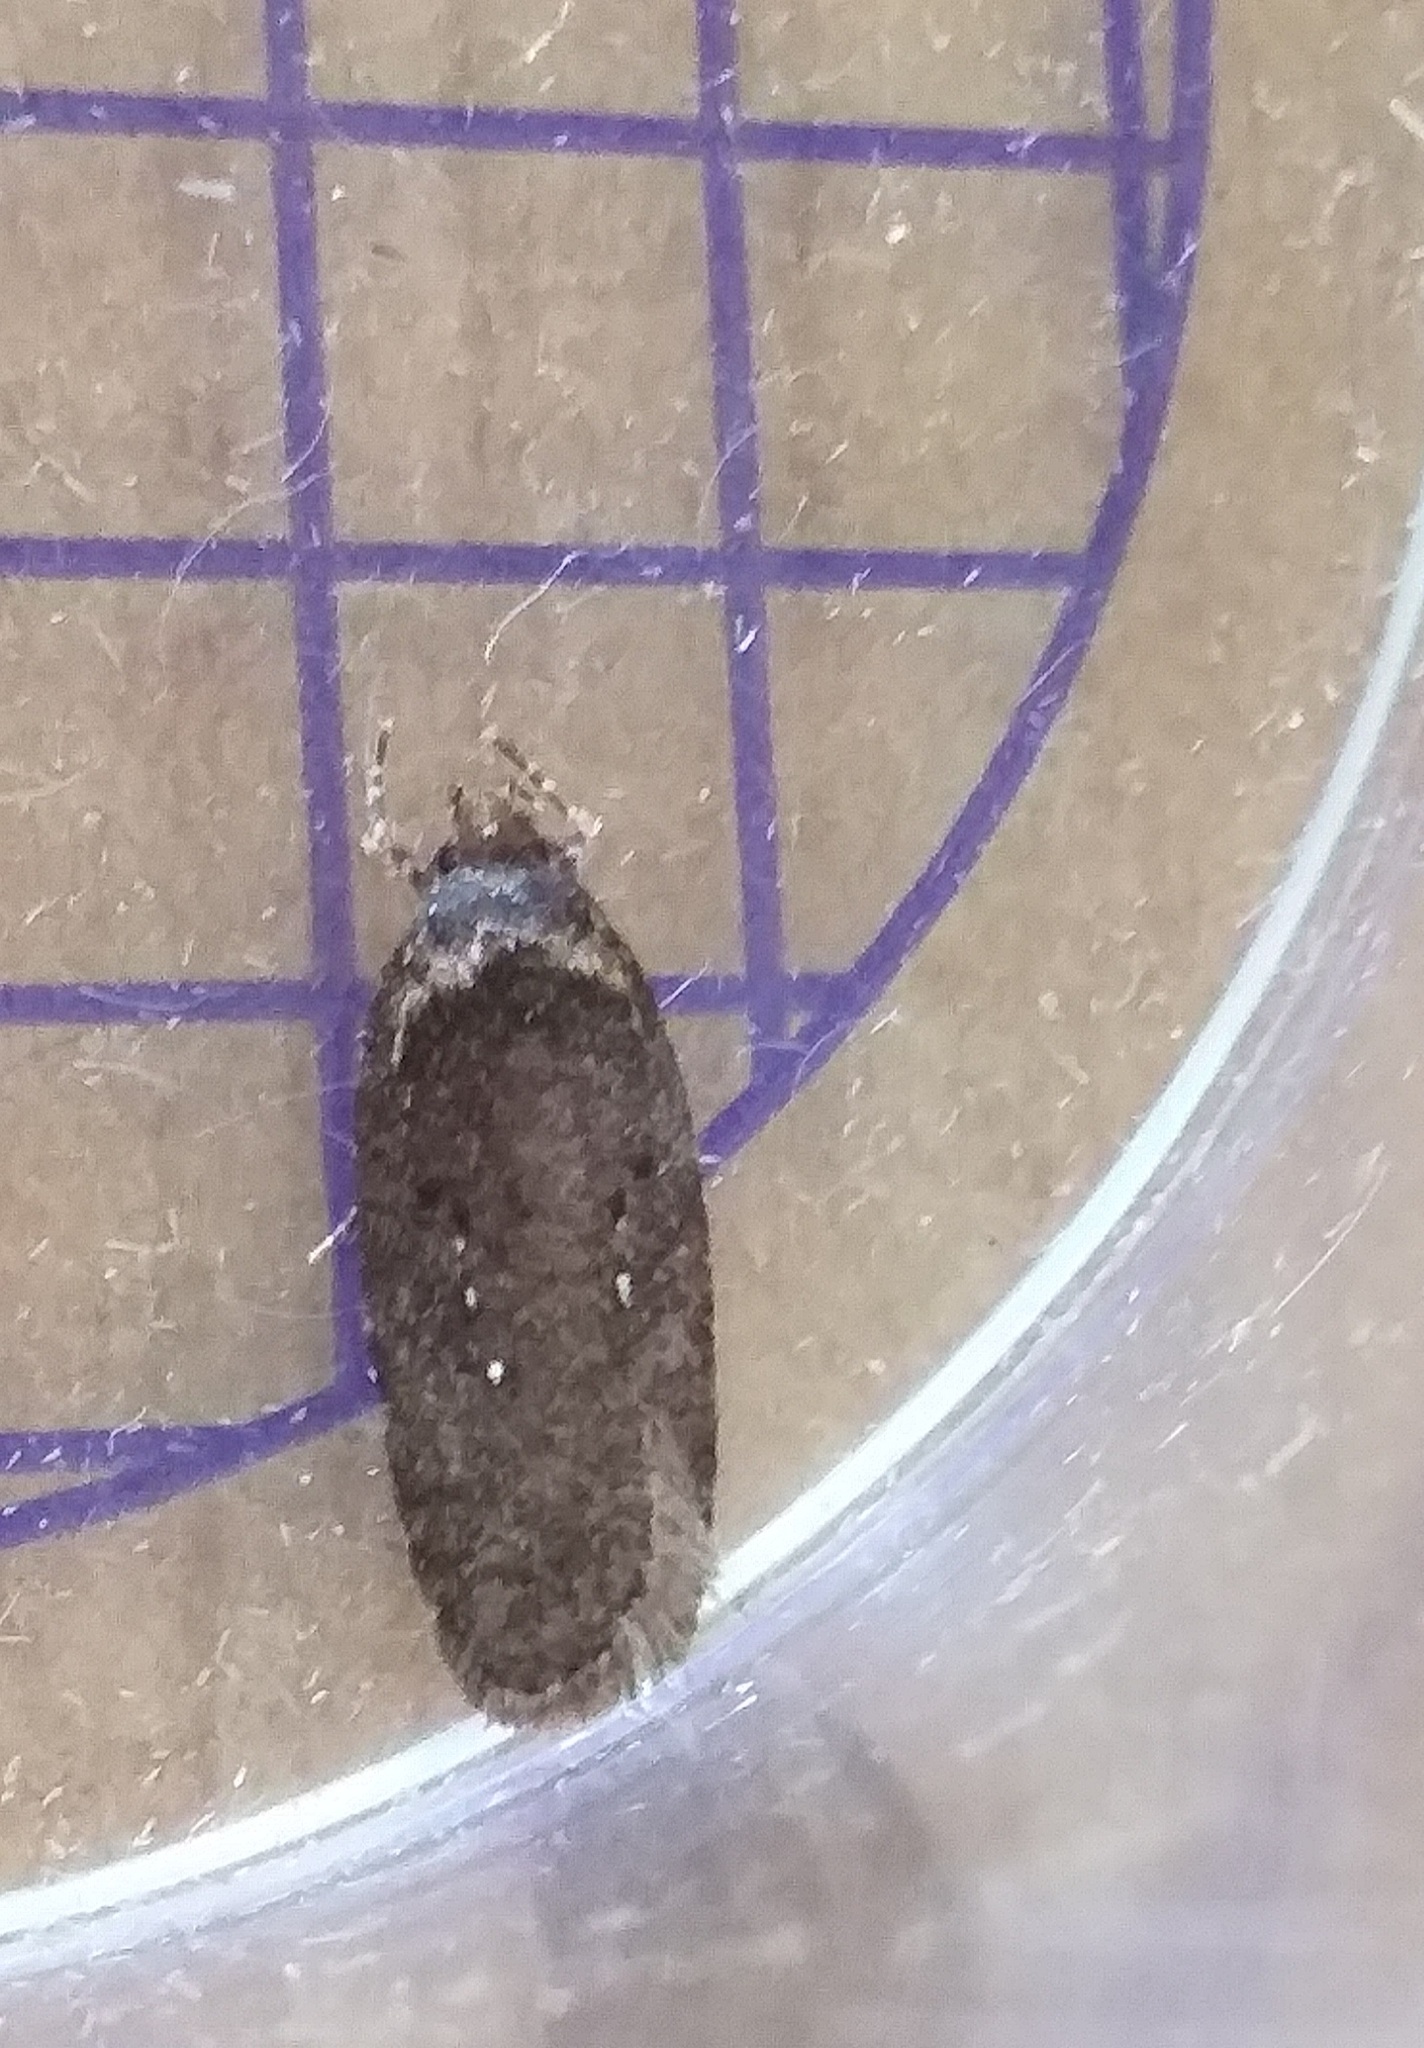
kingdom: Animalia
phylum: Arthropoda
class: Insecta
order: Lepidoptera
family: Depressariidae
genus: Agonopterix
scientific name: Agonopterix
